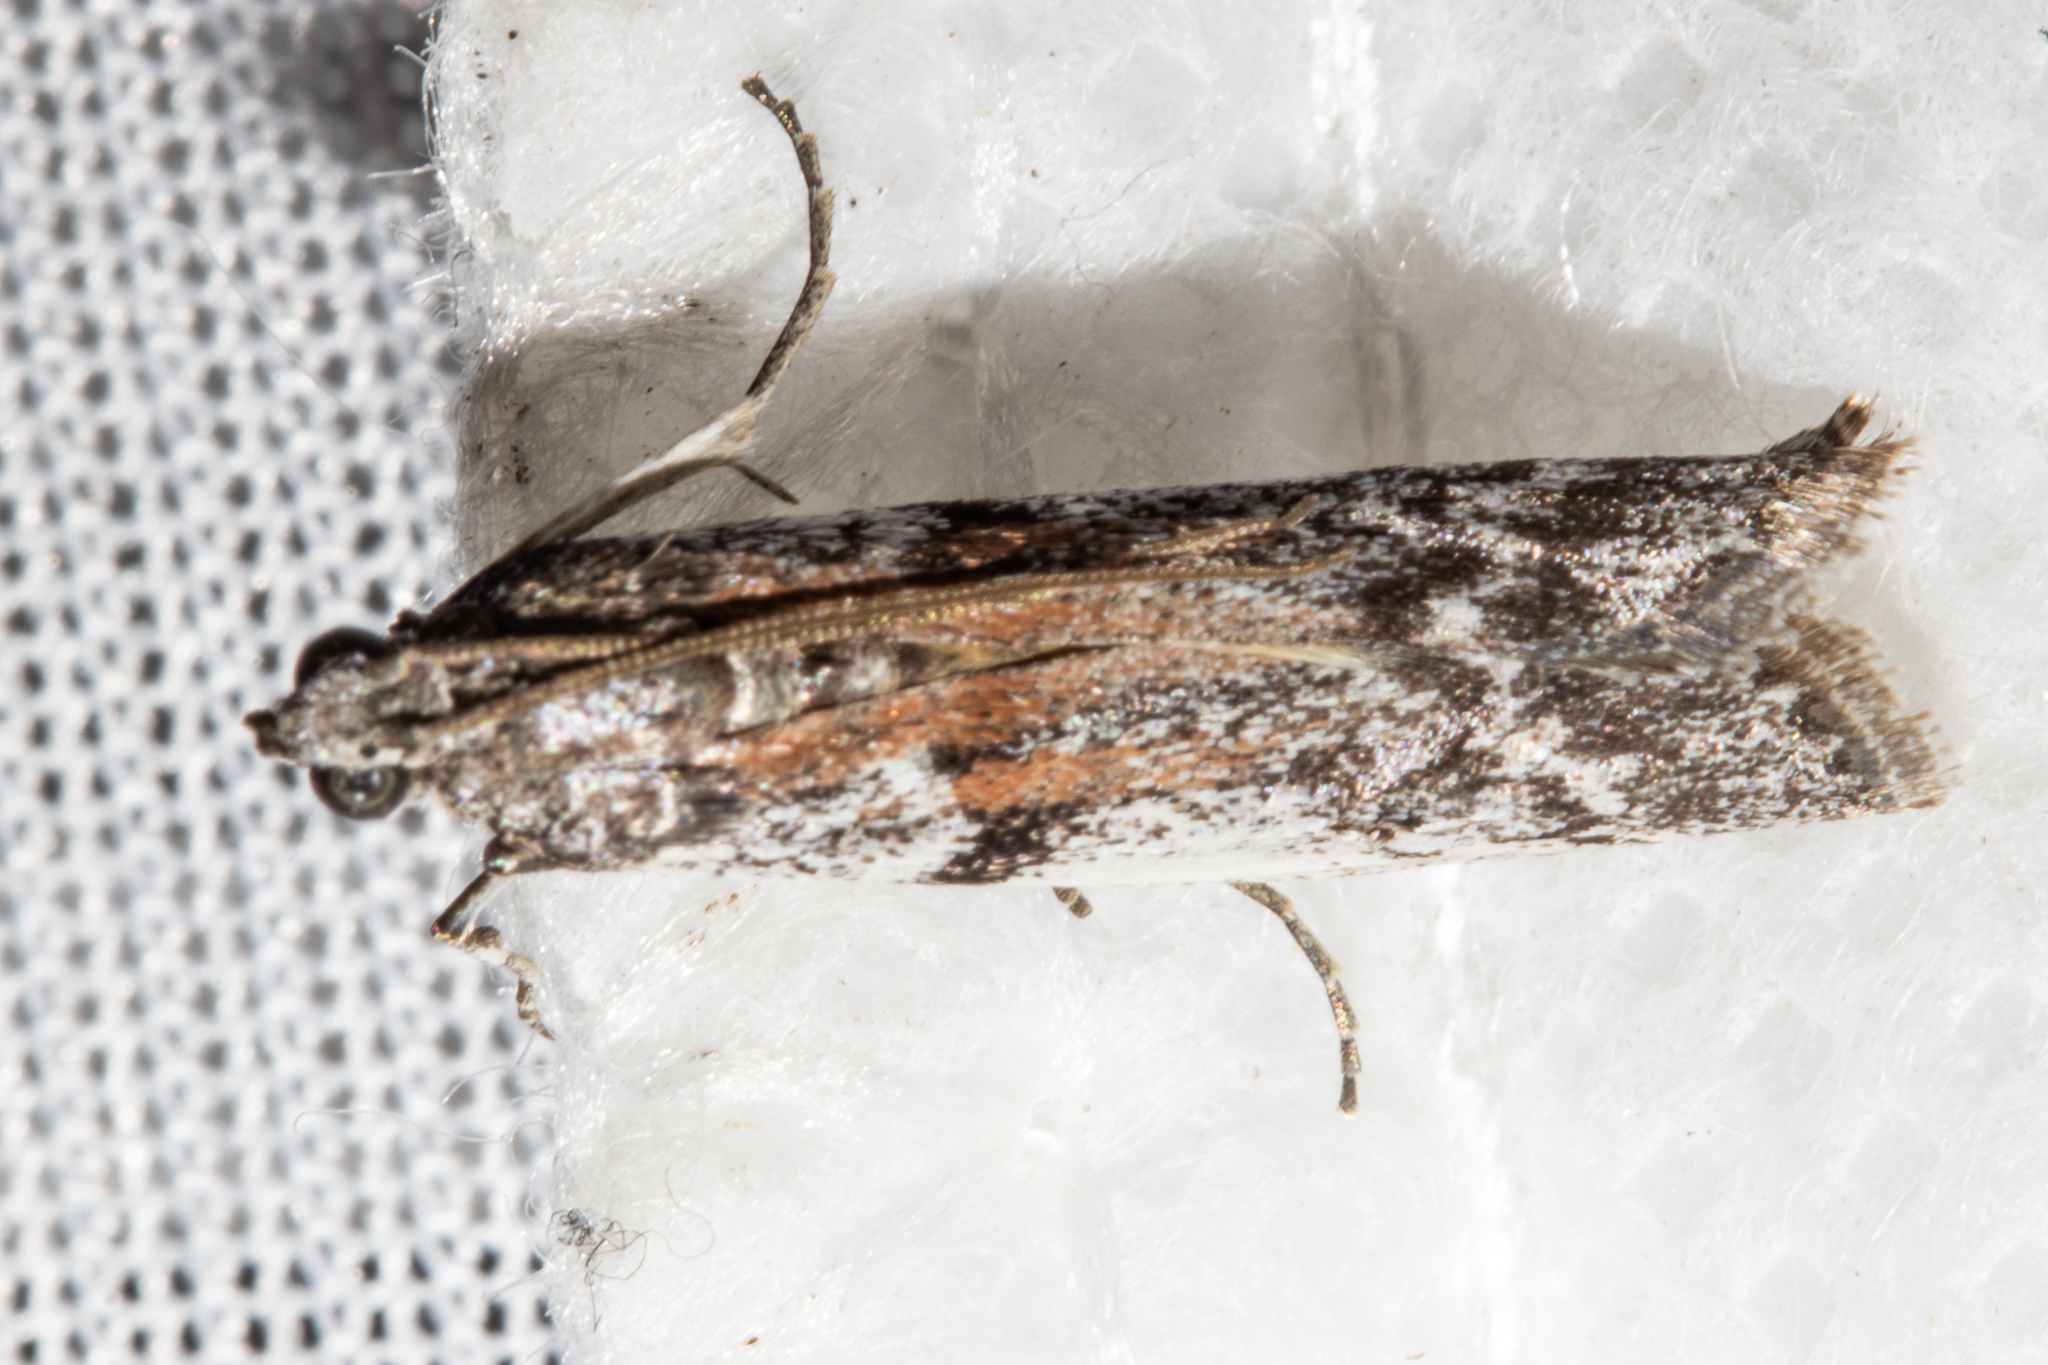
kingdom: Animalia
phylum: Arthropoda
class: Insecta
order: Lepidoptera
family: Pyralidae
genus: Patagoniodes
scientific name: Patagoniodes farinaria
